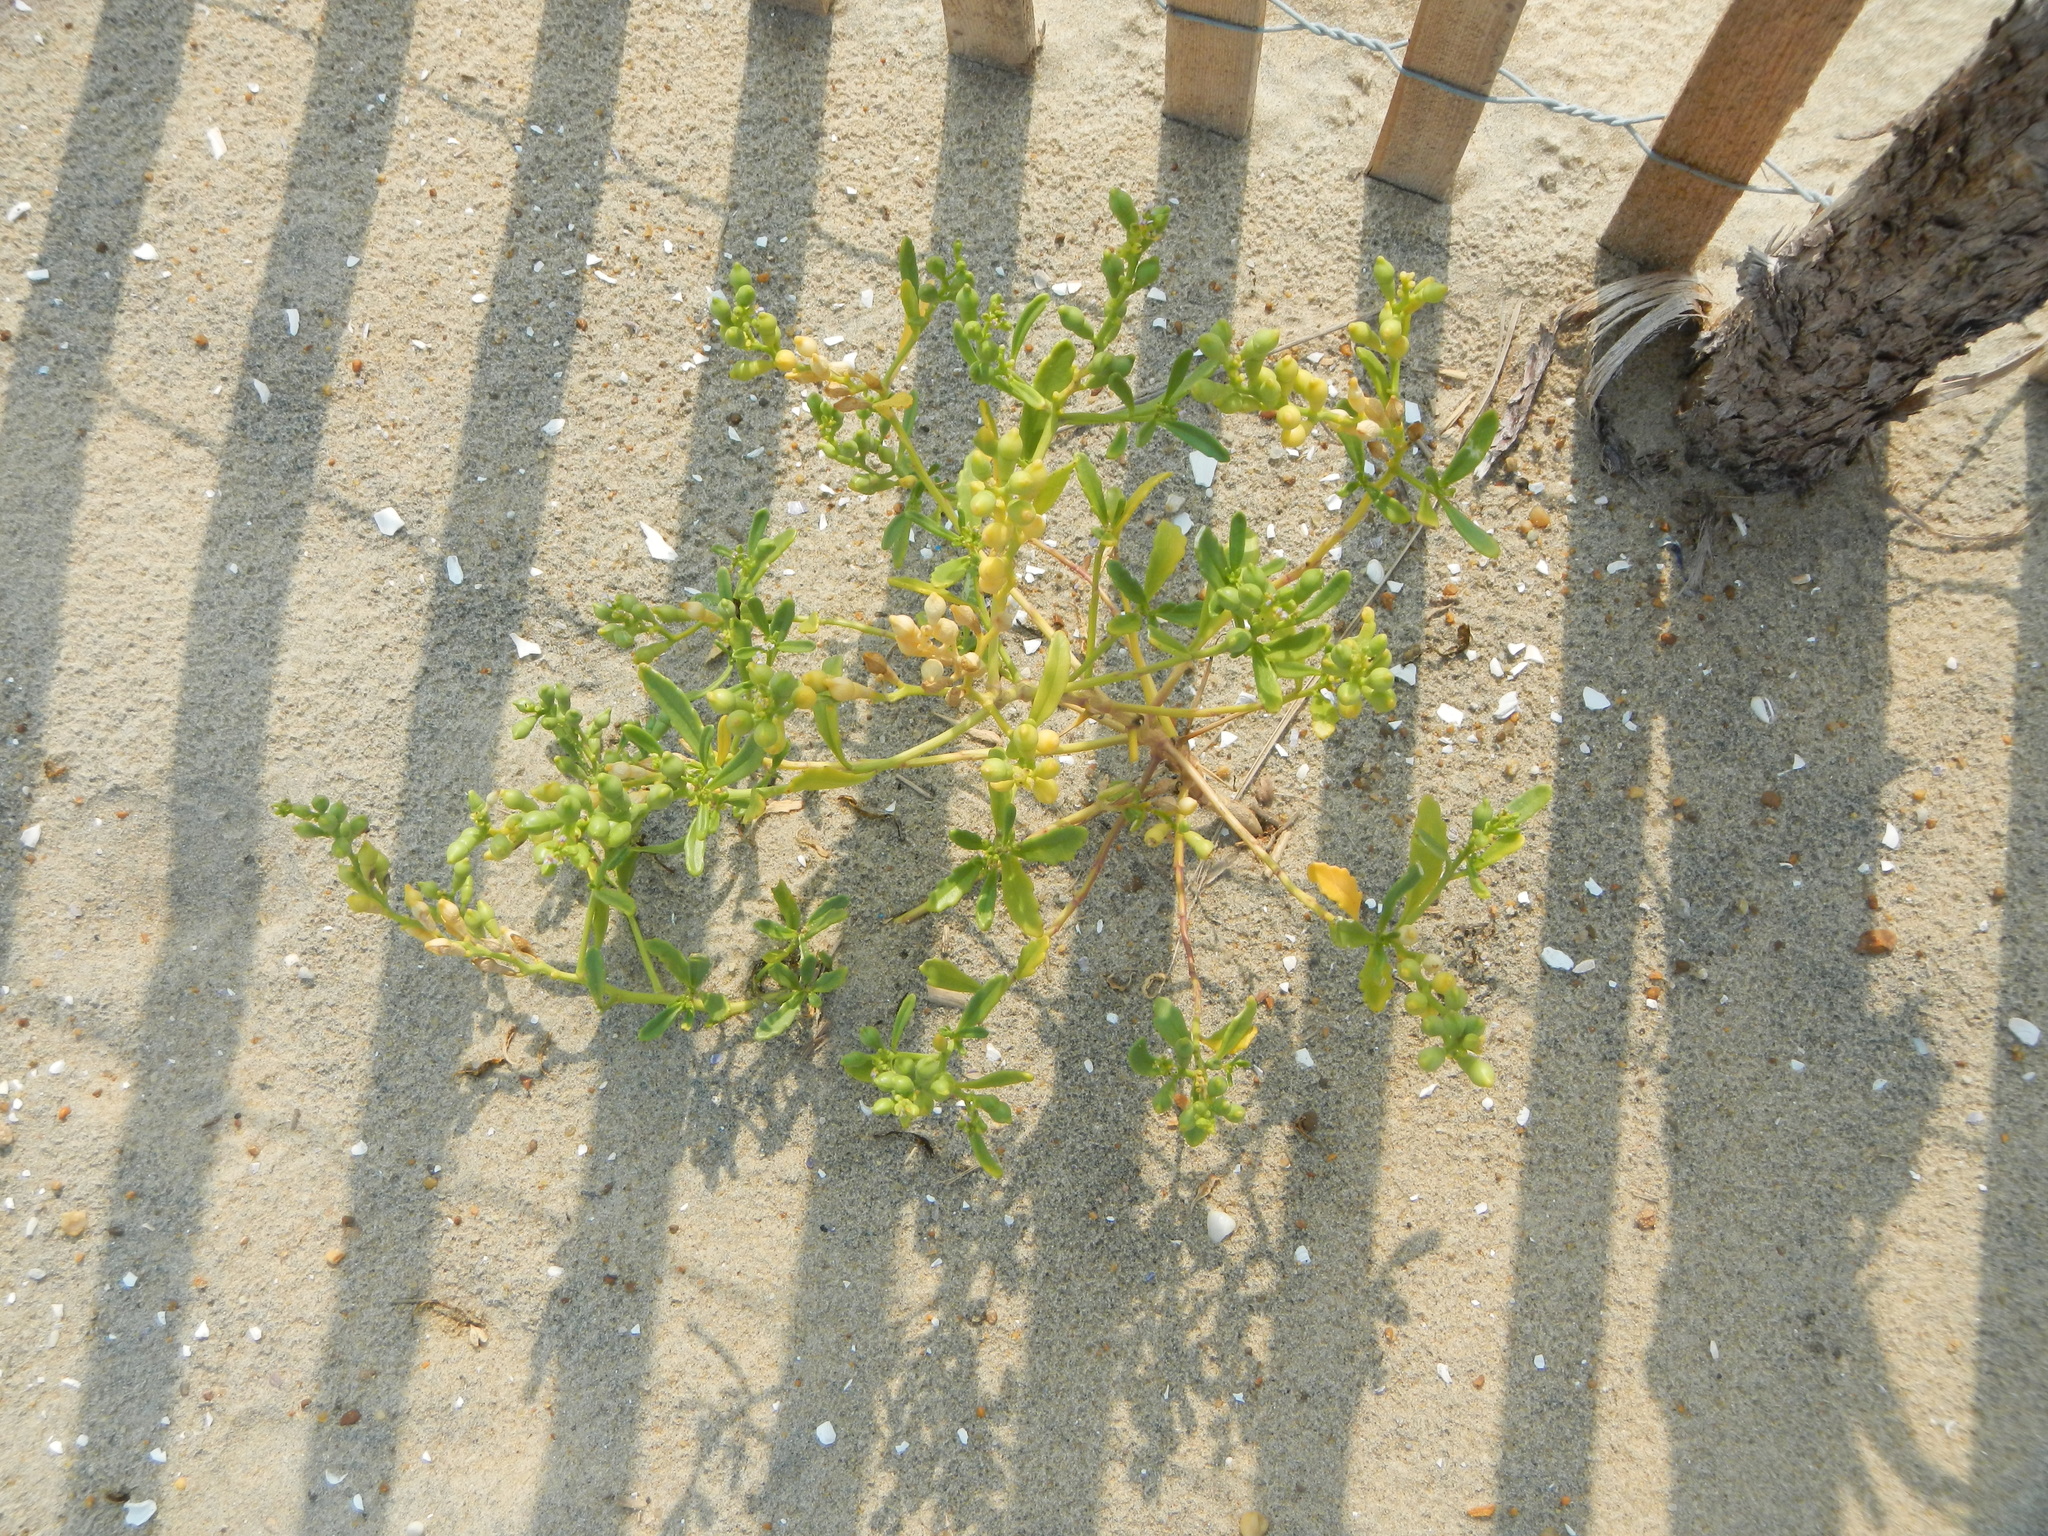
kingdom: Plantae
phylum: Tracheophyta
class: Magnoliopsida
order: Brassicales
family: Brassicaceae
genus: Cakile
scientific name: Cakile edentula
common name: American sea rocket
